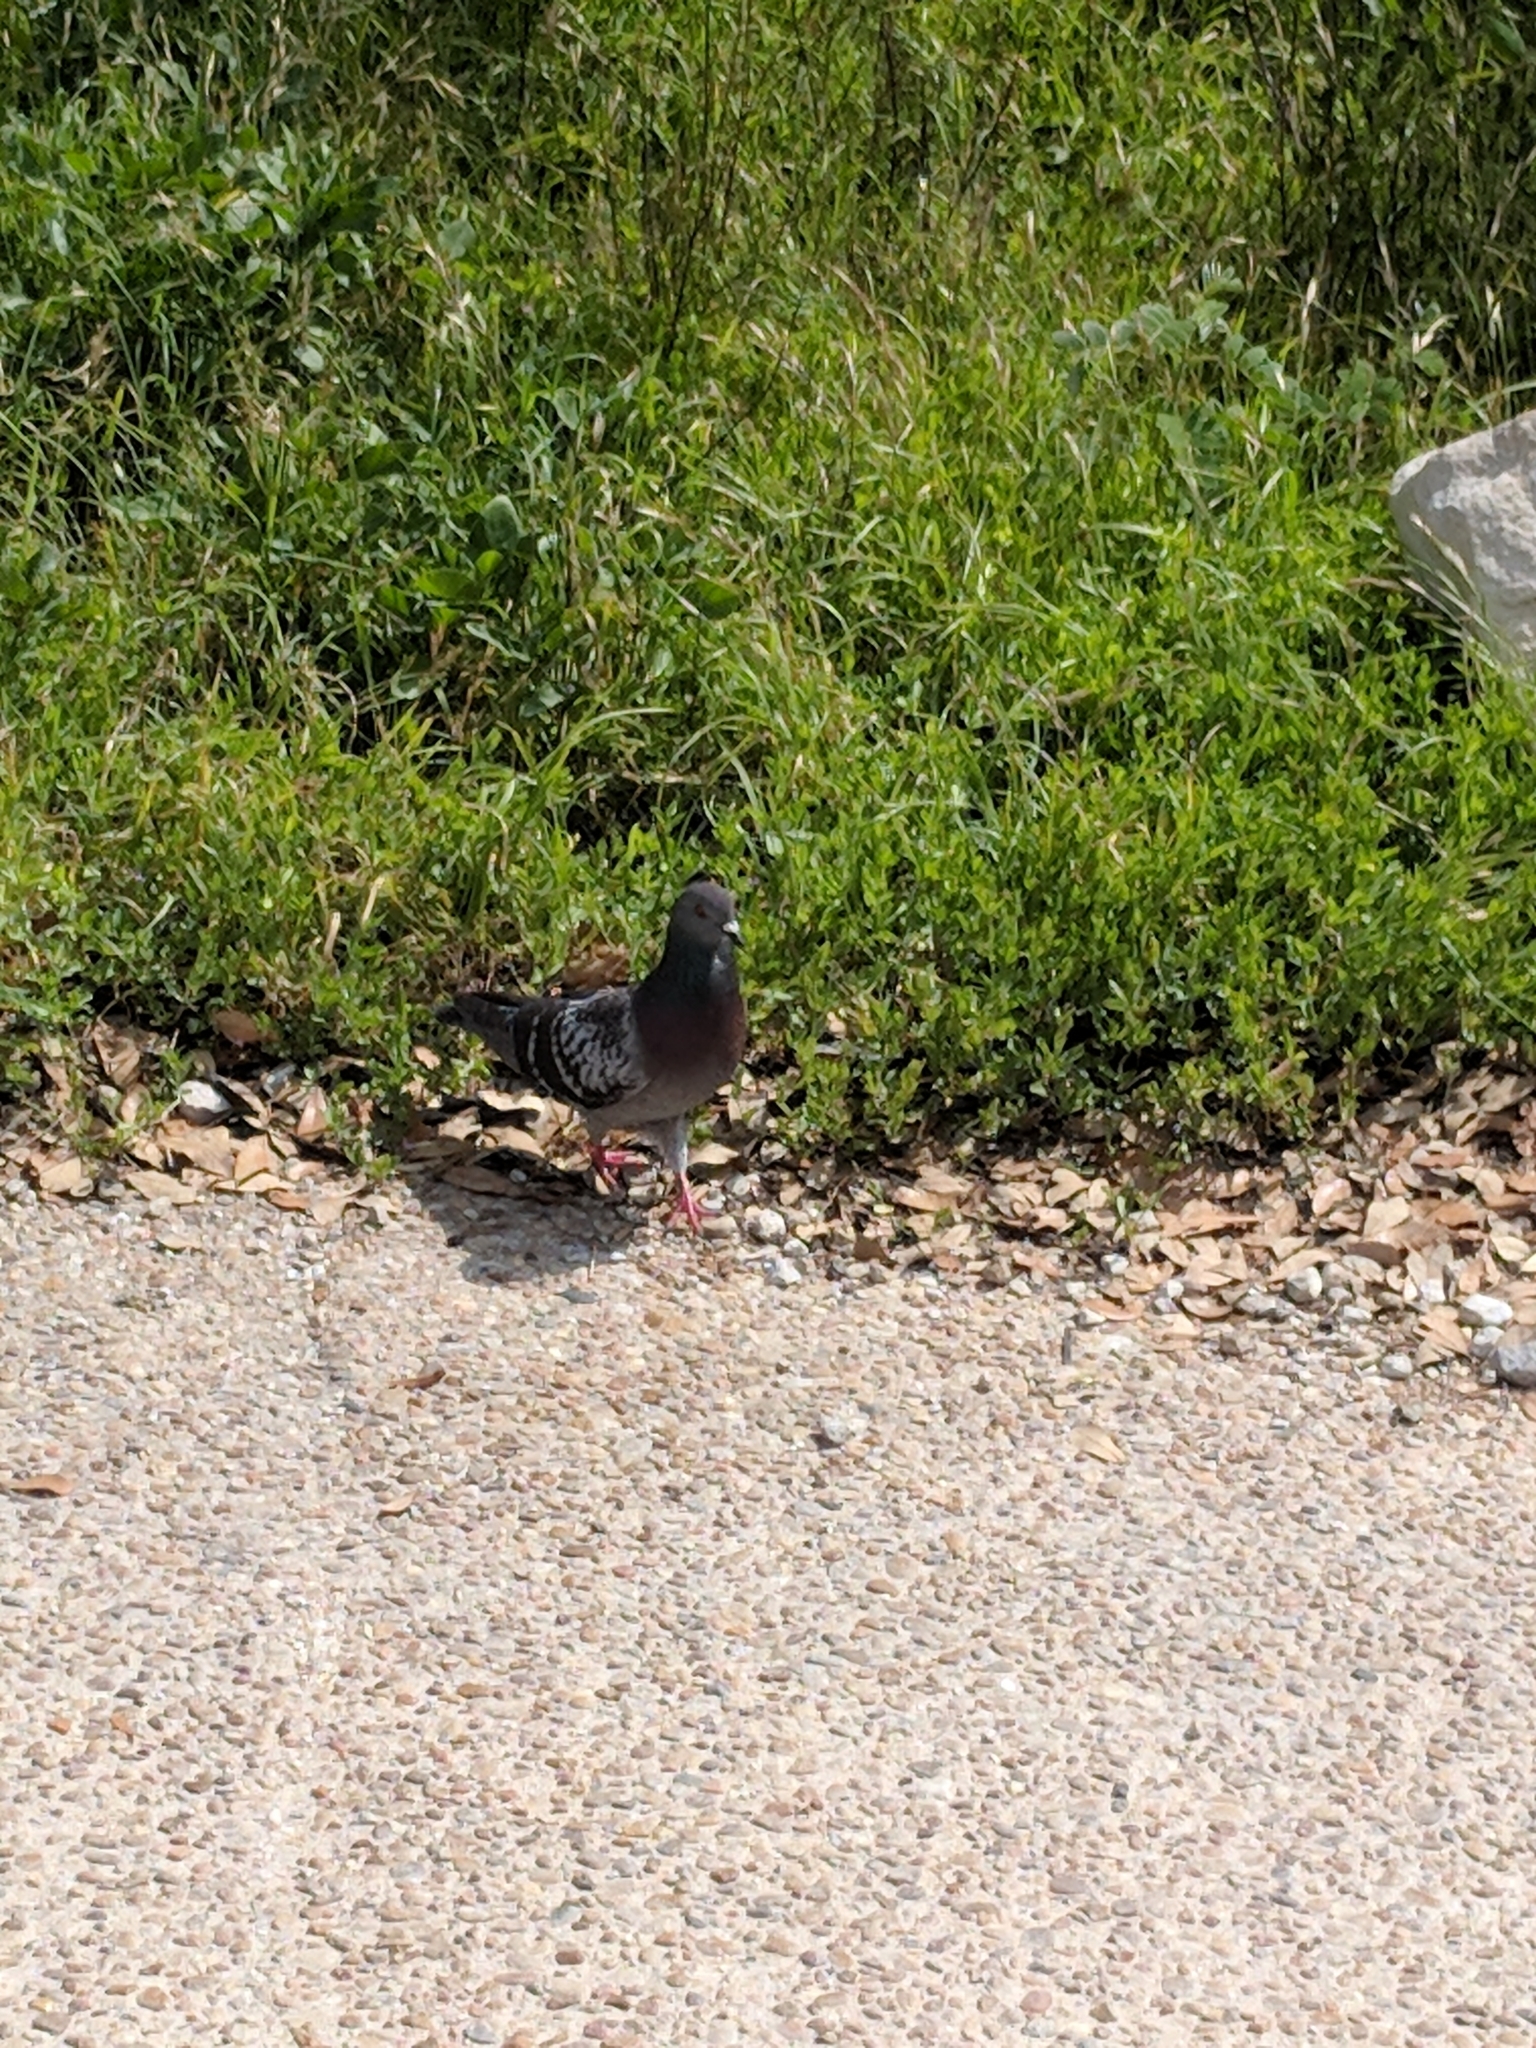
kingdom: Animalia
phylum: Chordata
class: Aves
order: Columbiformes
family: Columbidae
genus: Columba
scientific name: Columba livia
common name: Rock pigeon
